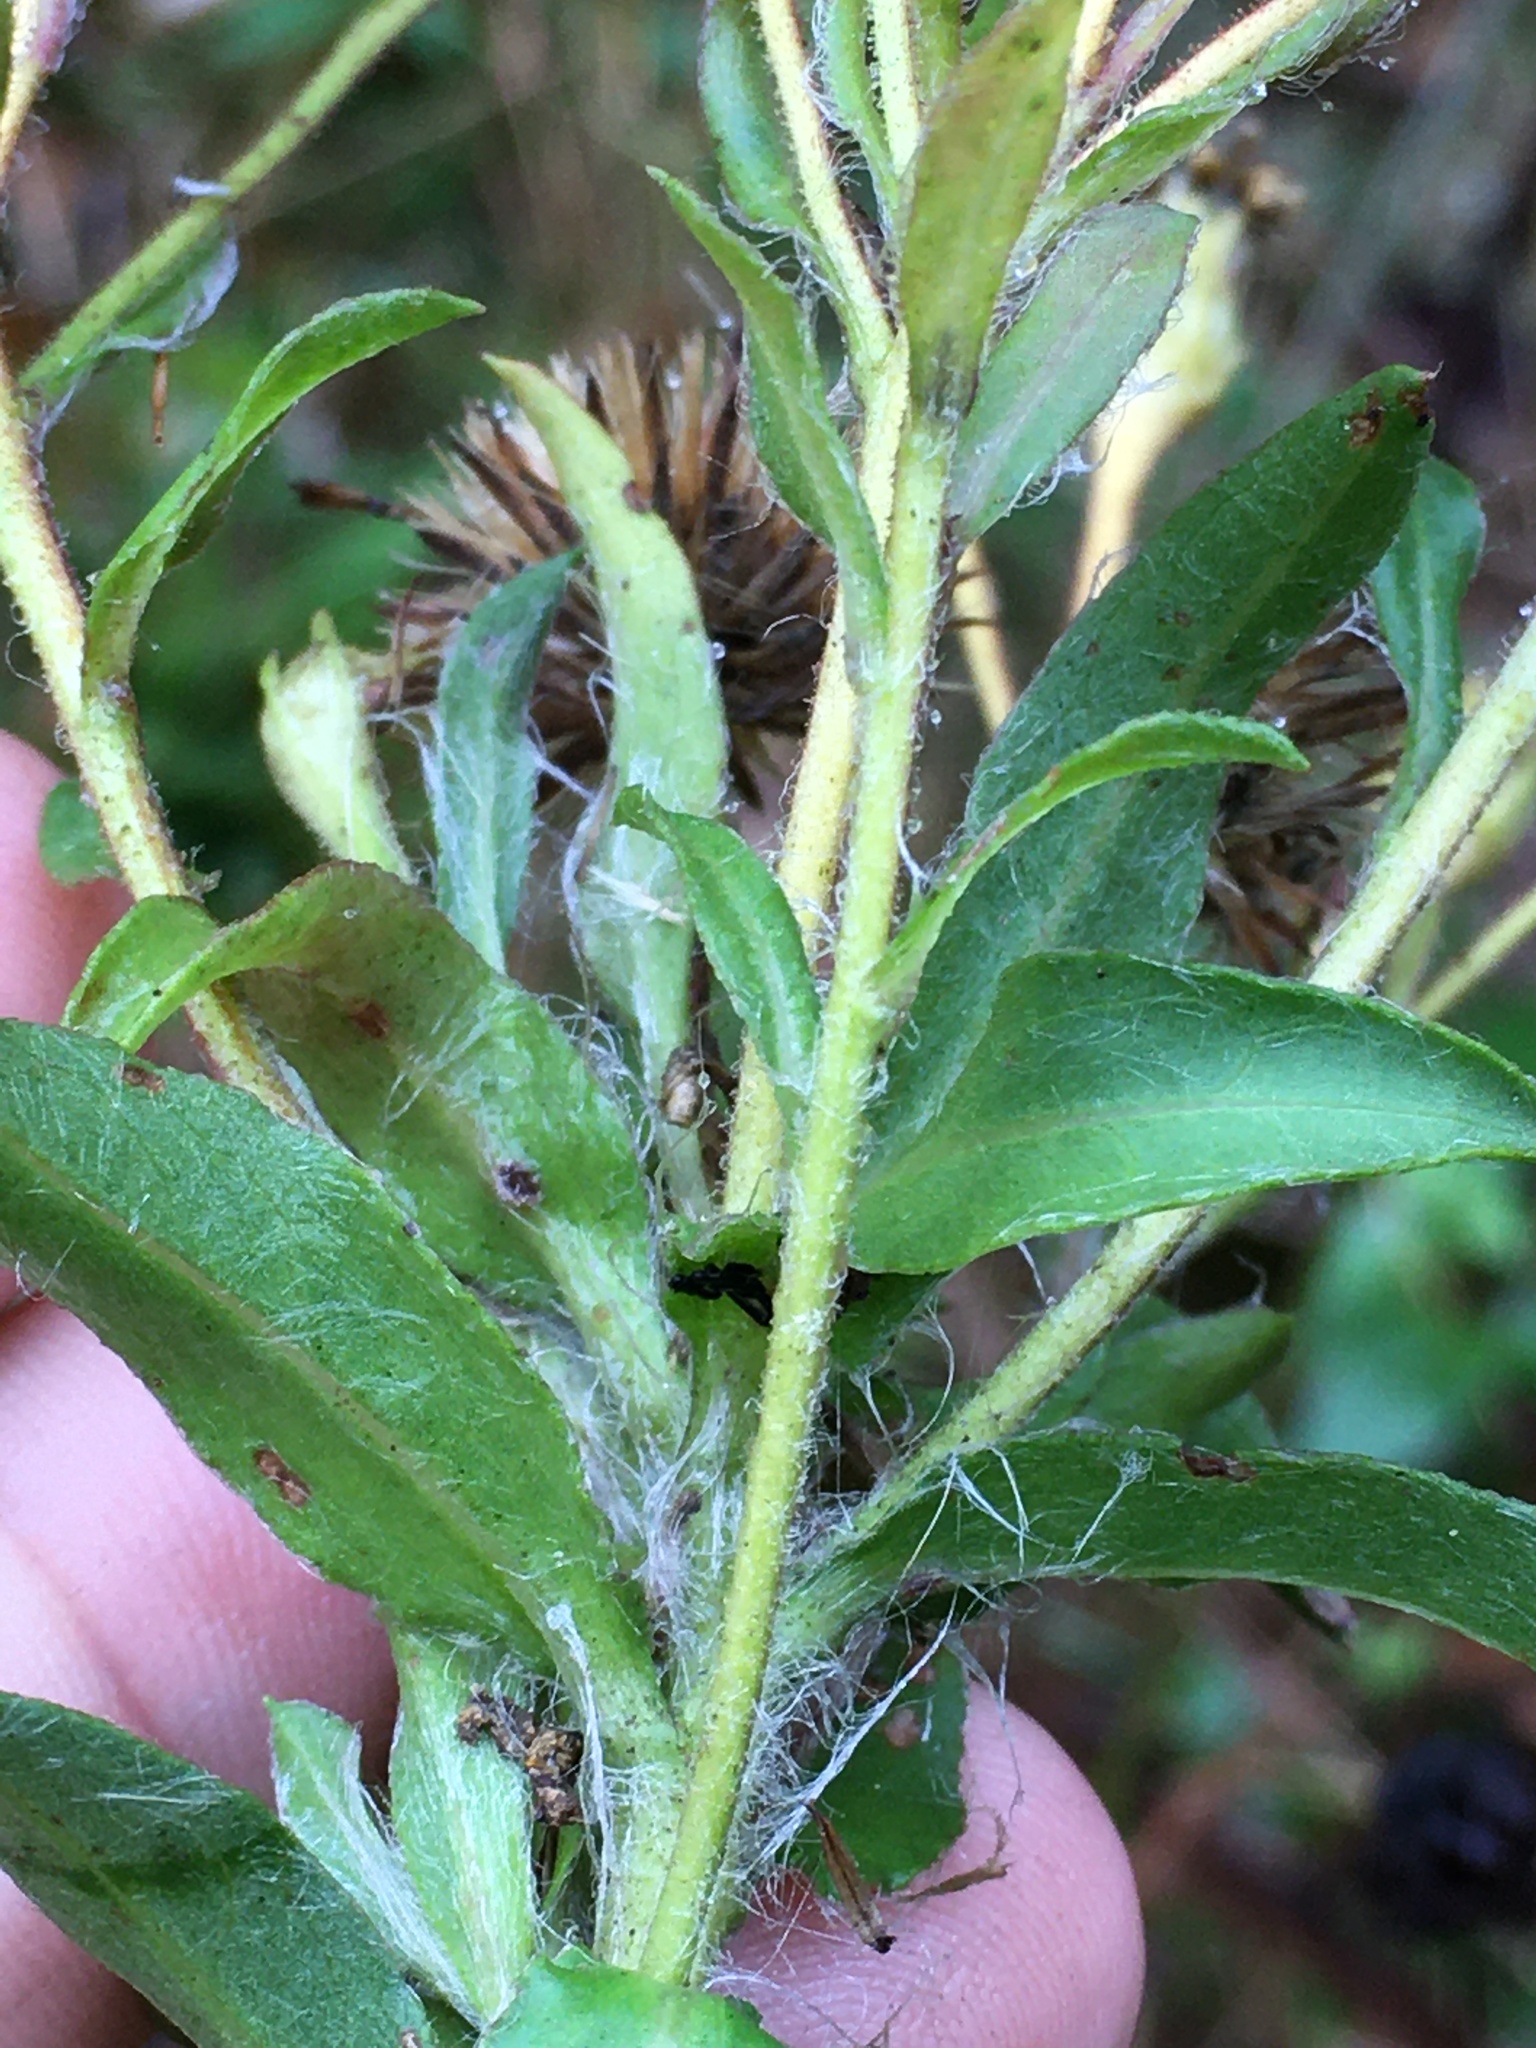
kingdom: Plantae
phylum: Tracheophyta
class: Magnoliopsida
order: Asterales
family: Asteraceae
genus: Chrysopsis
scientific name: Chrysopsis mariana
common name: Maryland golden-aster
